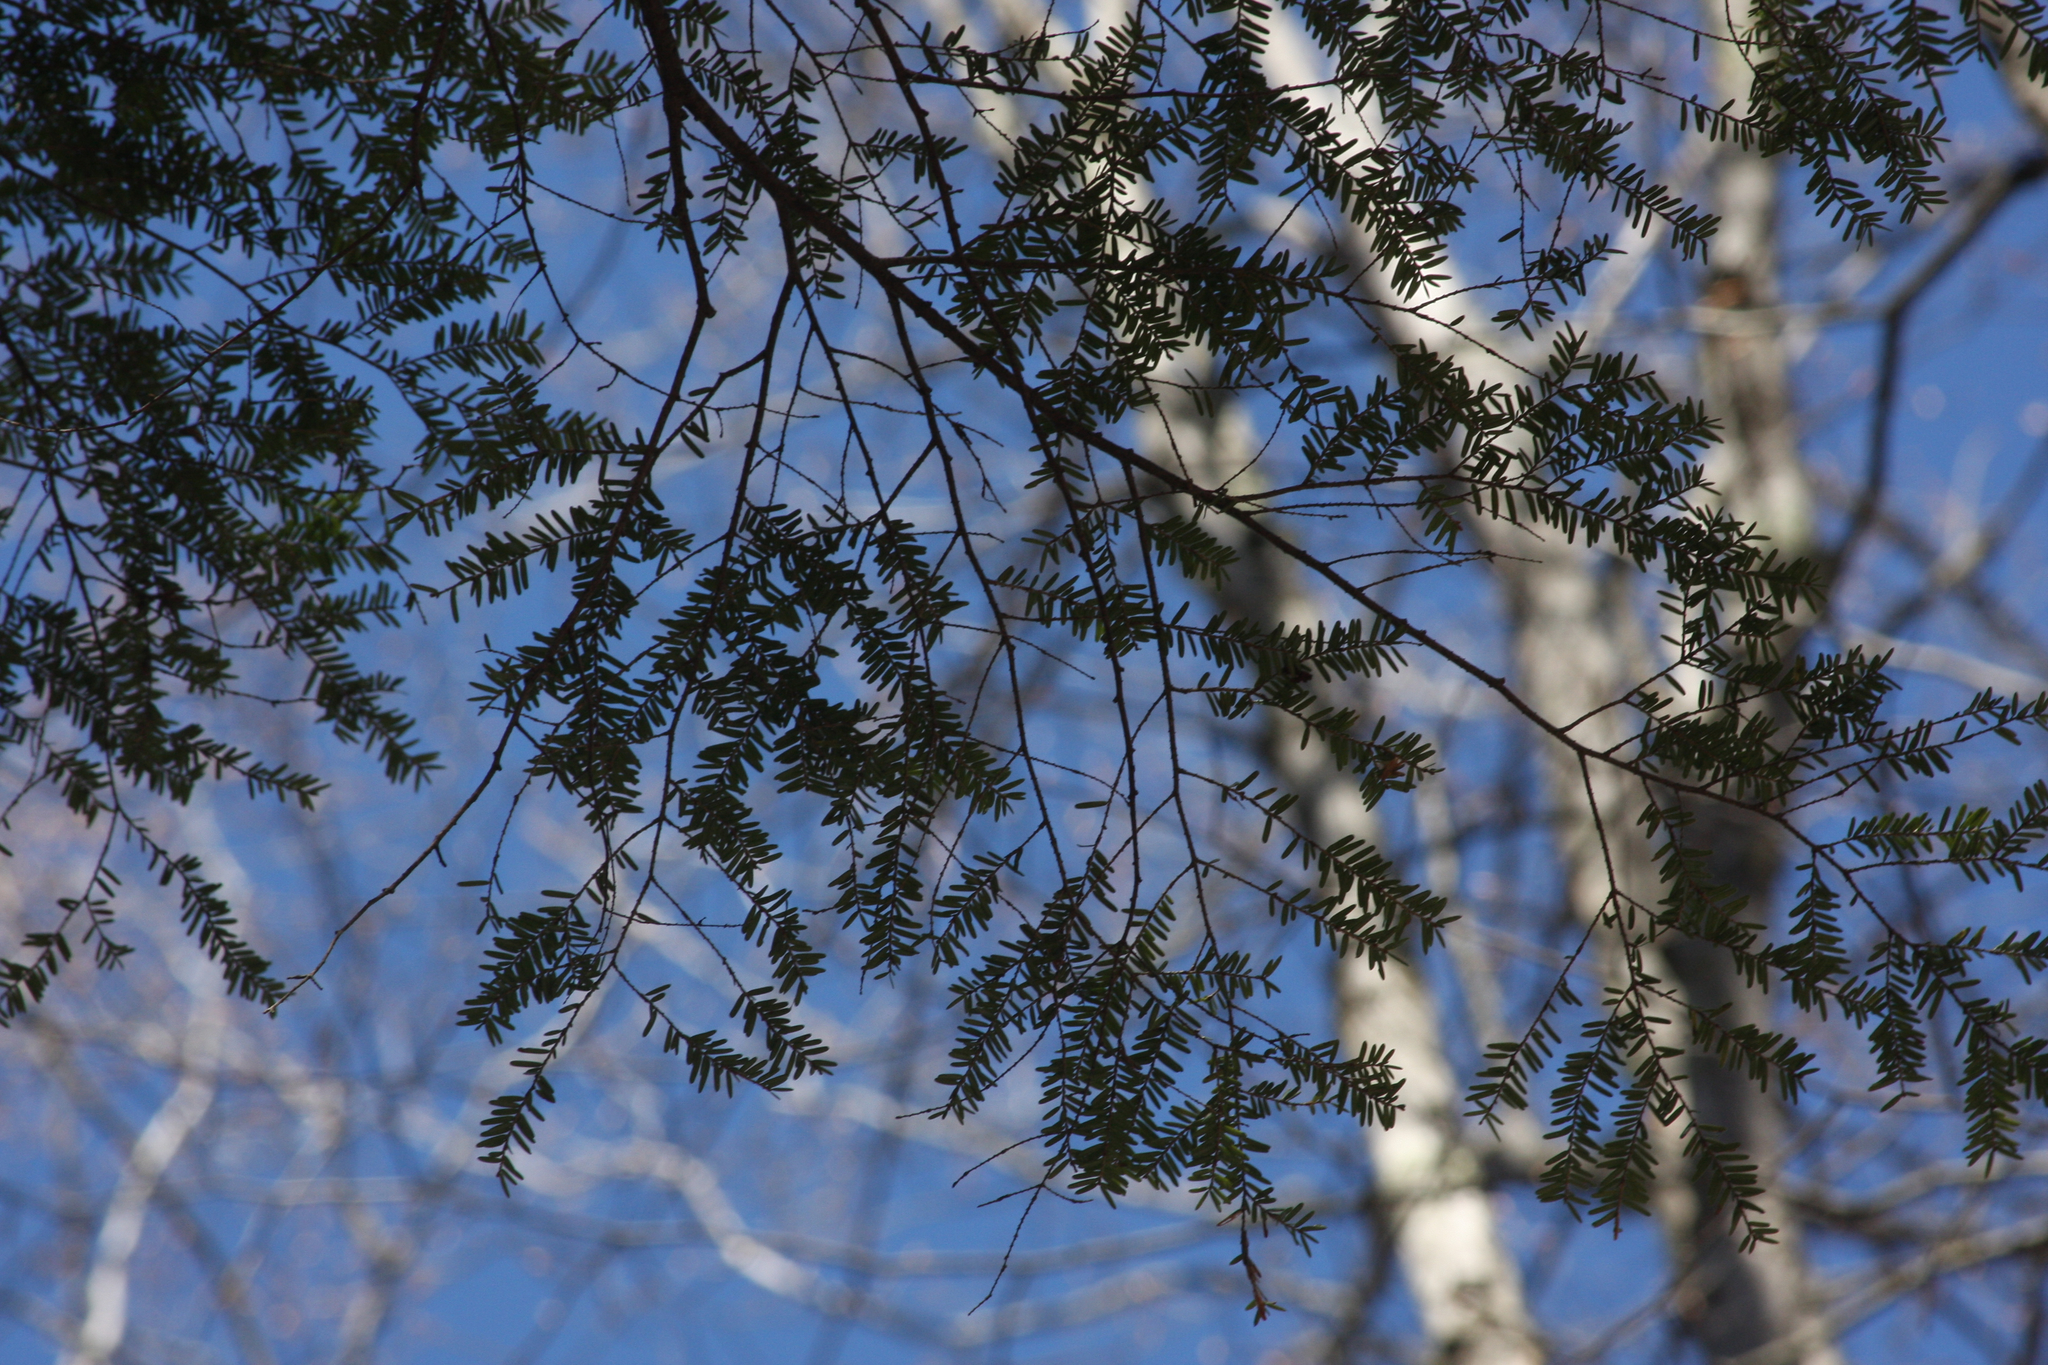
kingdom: Plantae
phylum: Tracheophyta
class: Pinopsida
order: Pinales
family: Pinaceae
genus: Tsuga
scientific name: Tsuga canadensis
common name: Eastern hemlock
